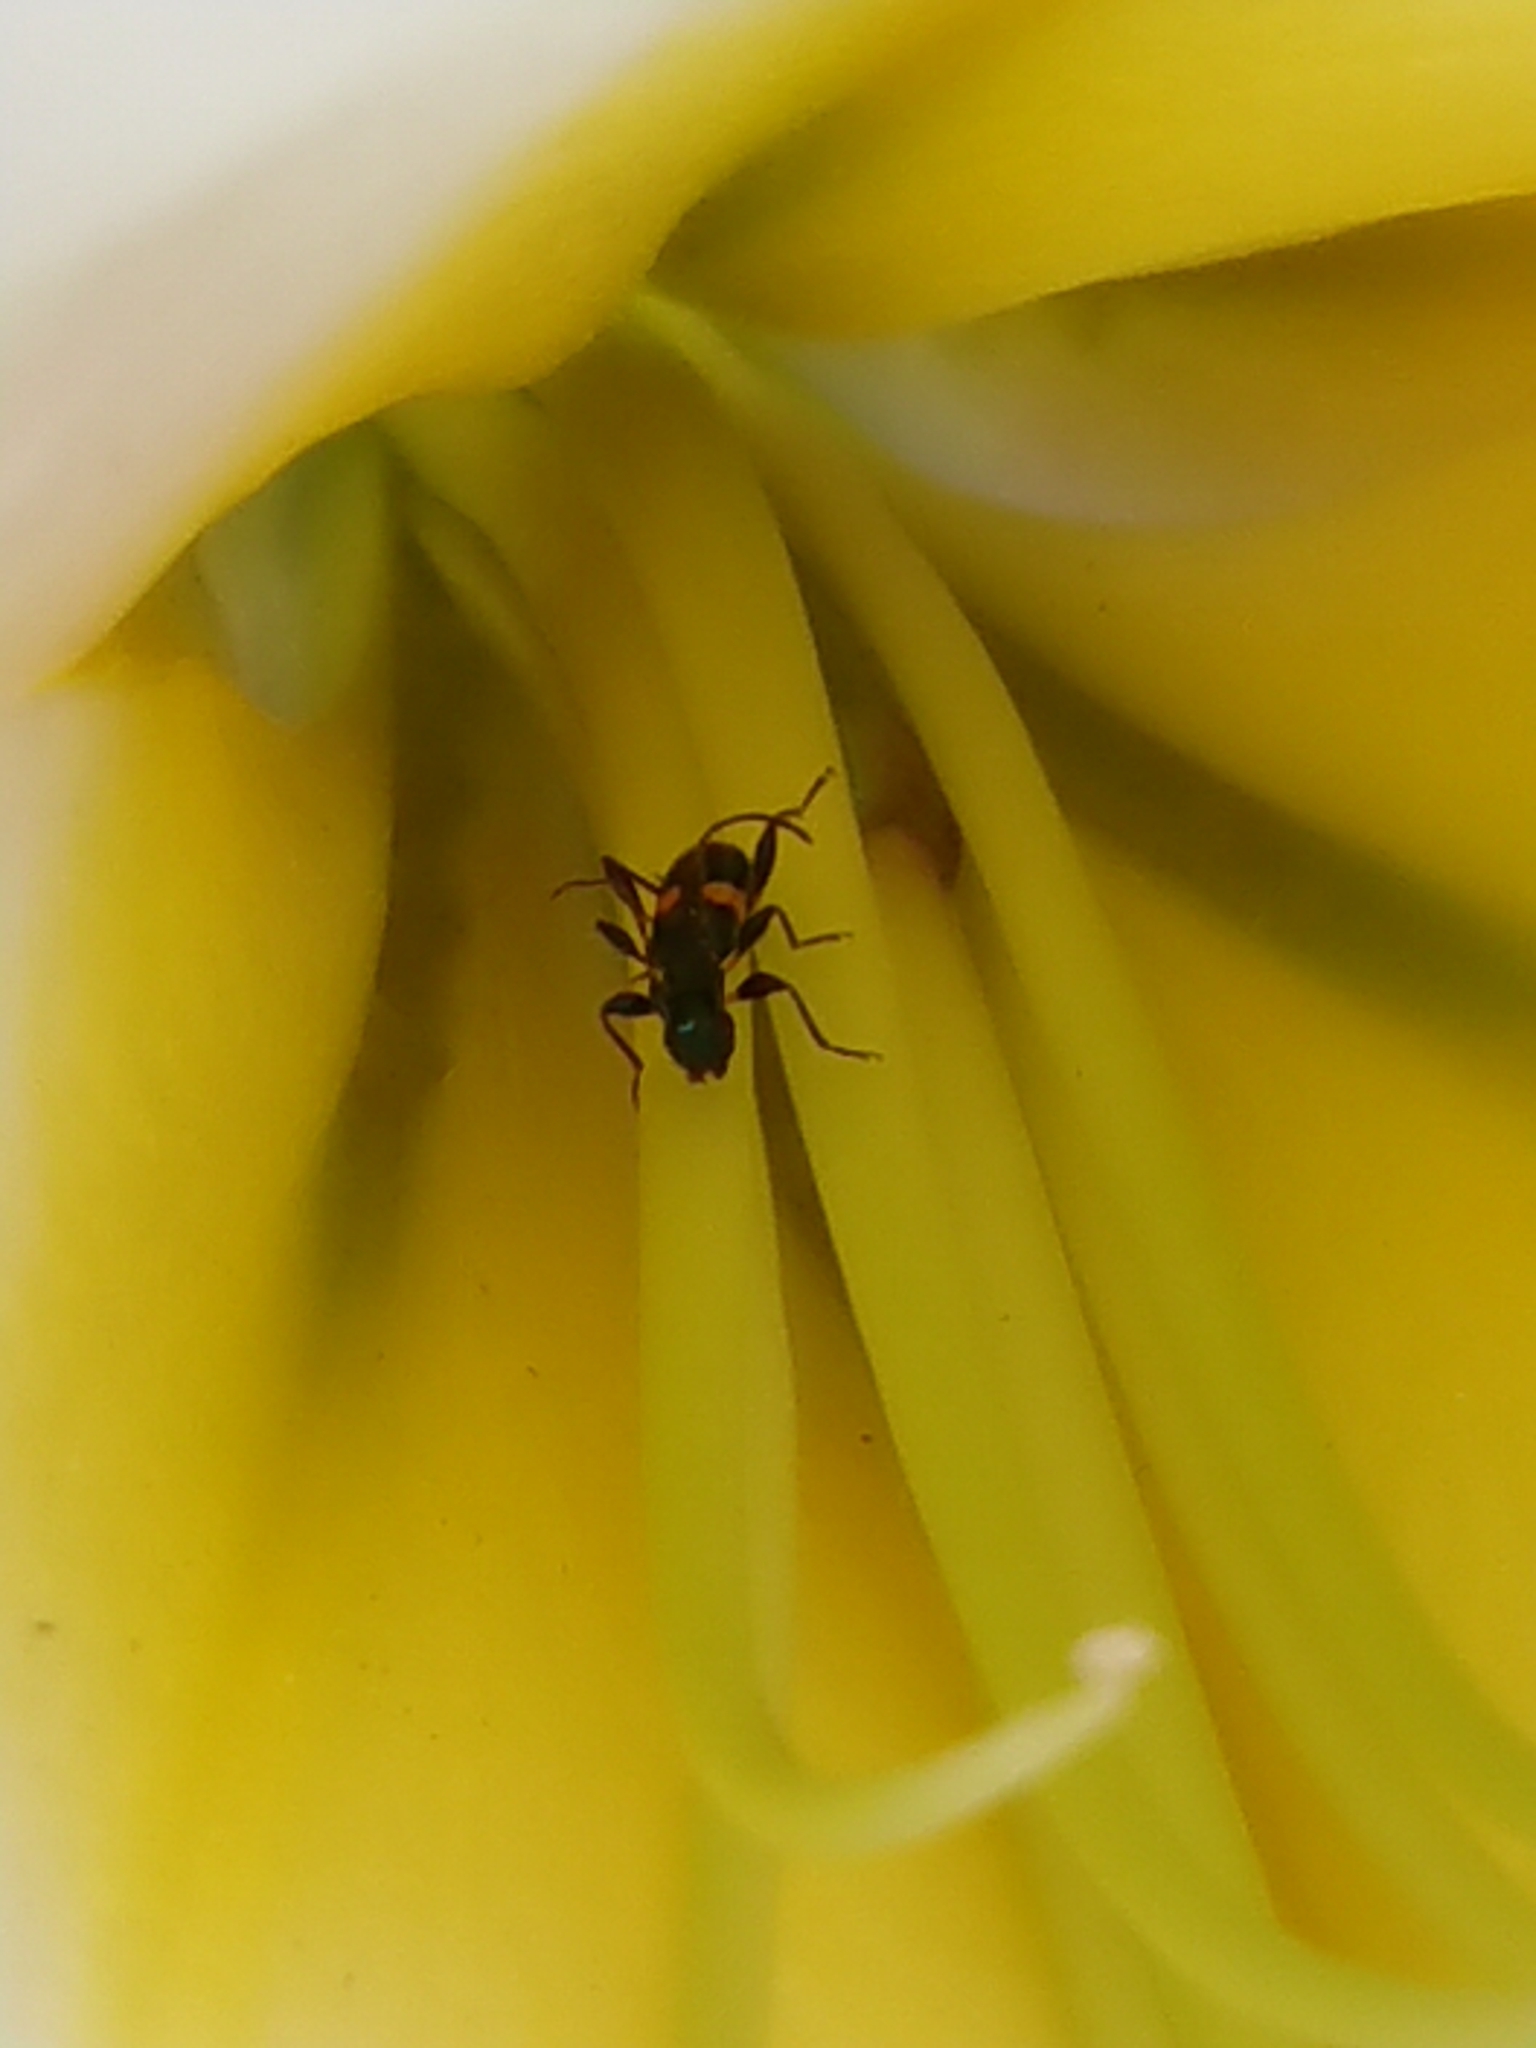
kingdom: Animalia
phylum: Arthropoda
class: Insecta
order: Coleoptera
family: Cerambycidae
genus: Zorion
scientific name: Zorion guttigerum
